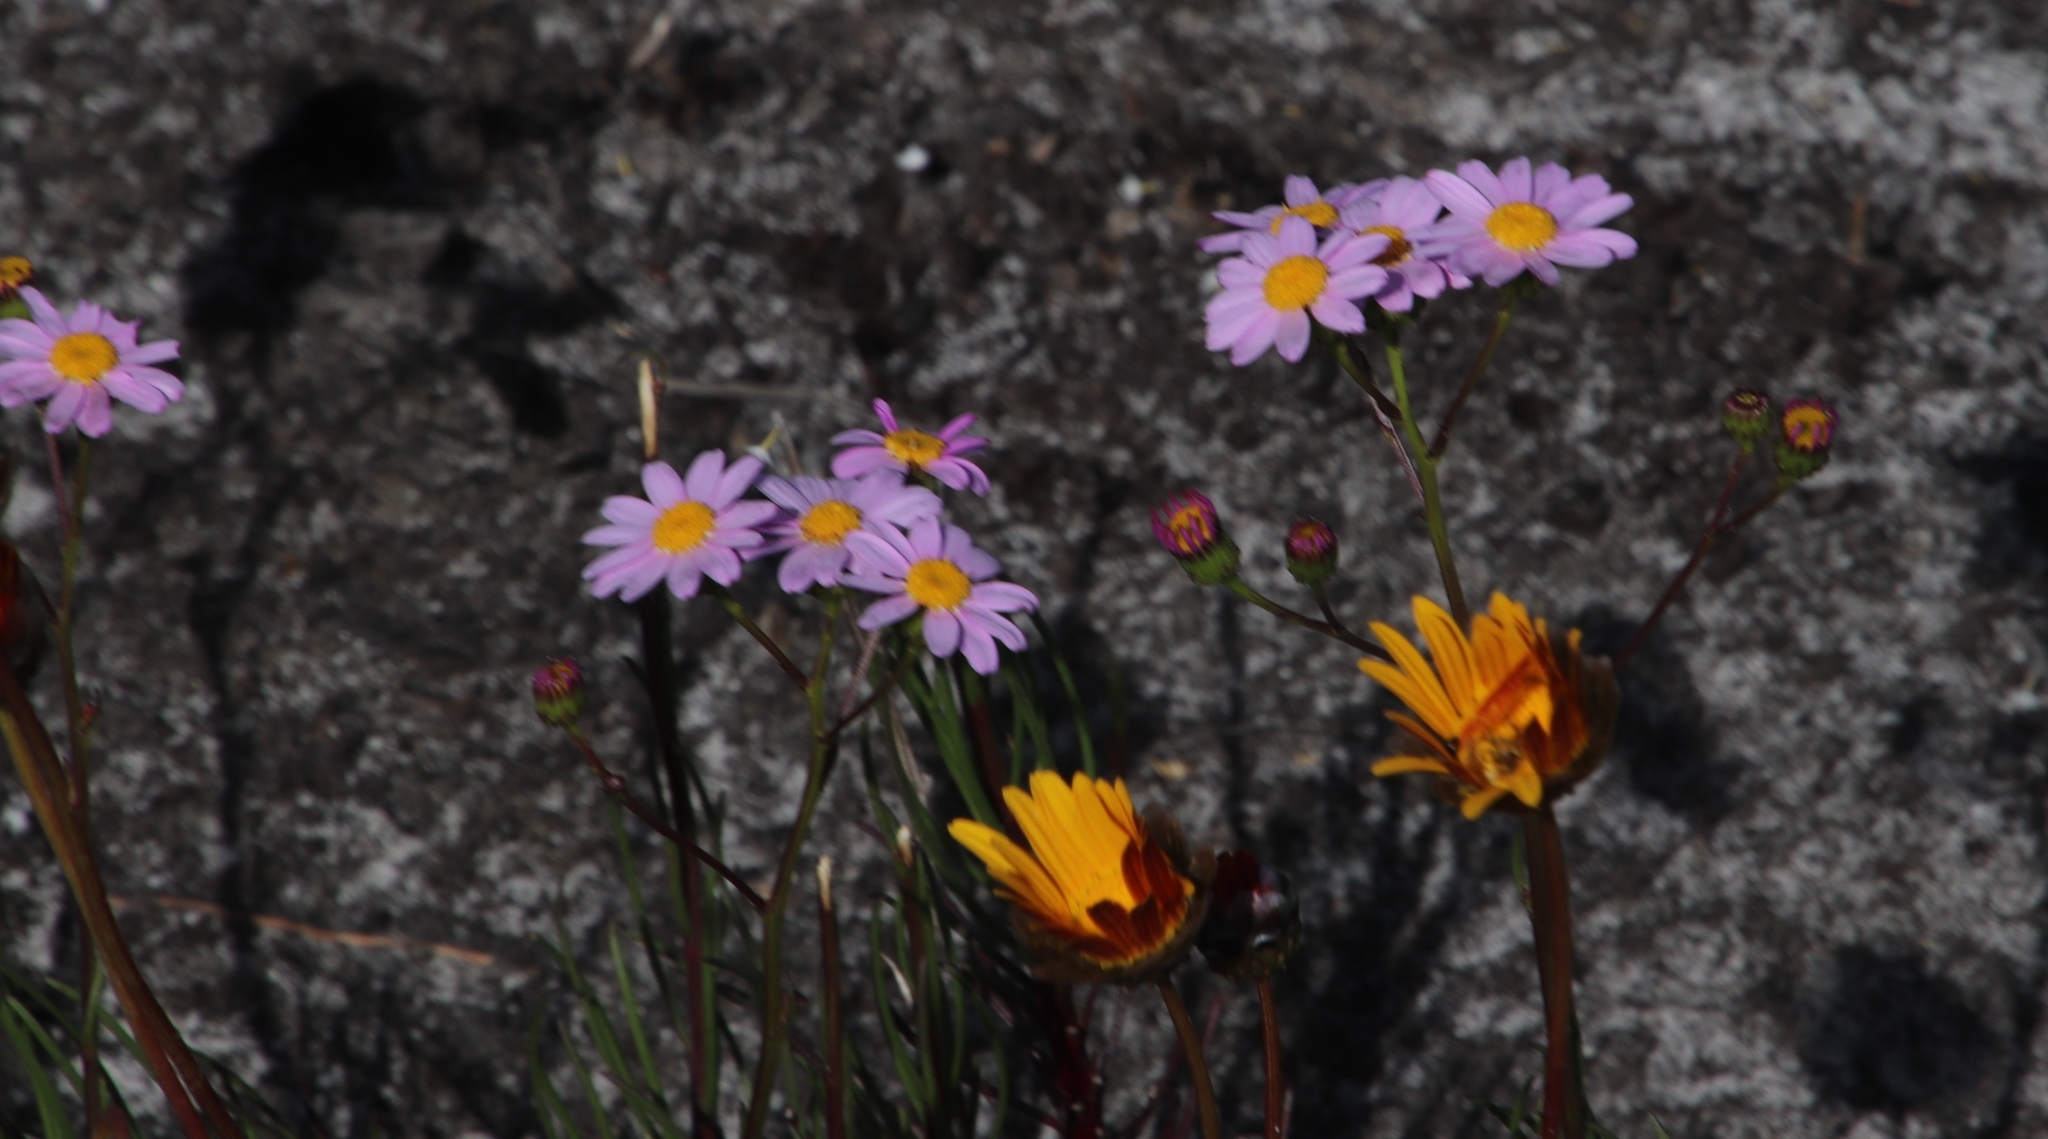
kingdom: Plantae
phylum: Tracheophyta
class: Magnoliopsida
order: Asterales
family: Asteraceae
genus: Senecio
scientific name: Senecio umbellatus
